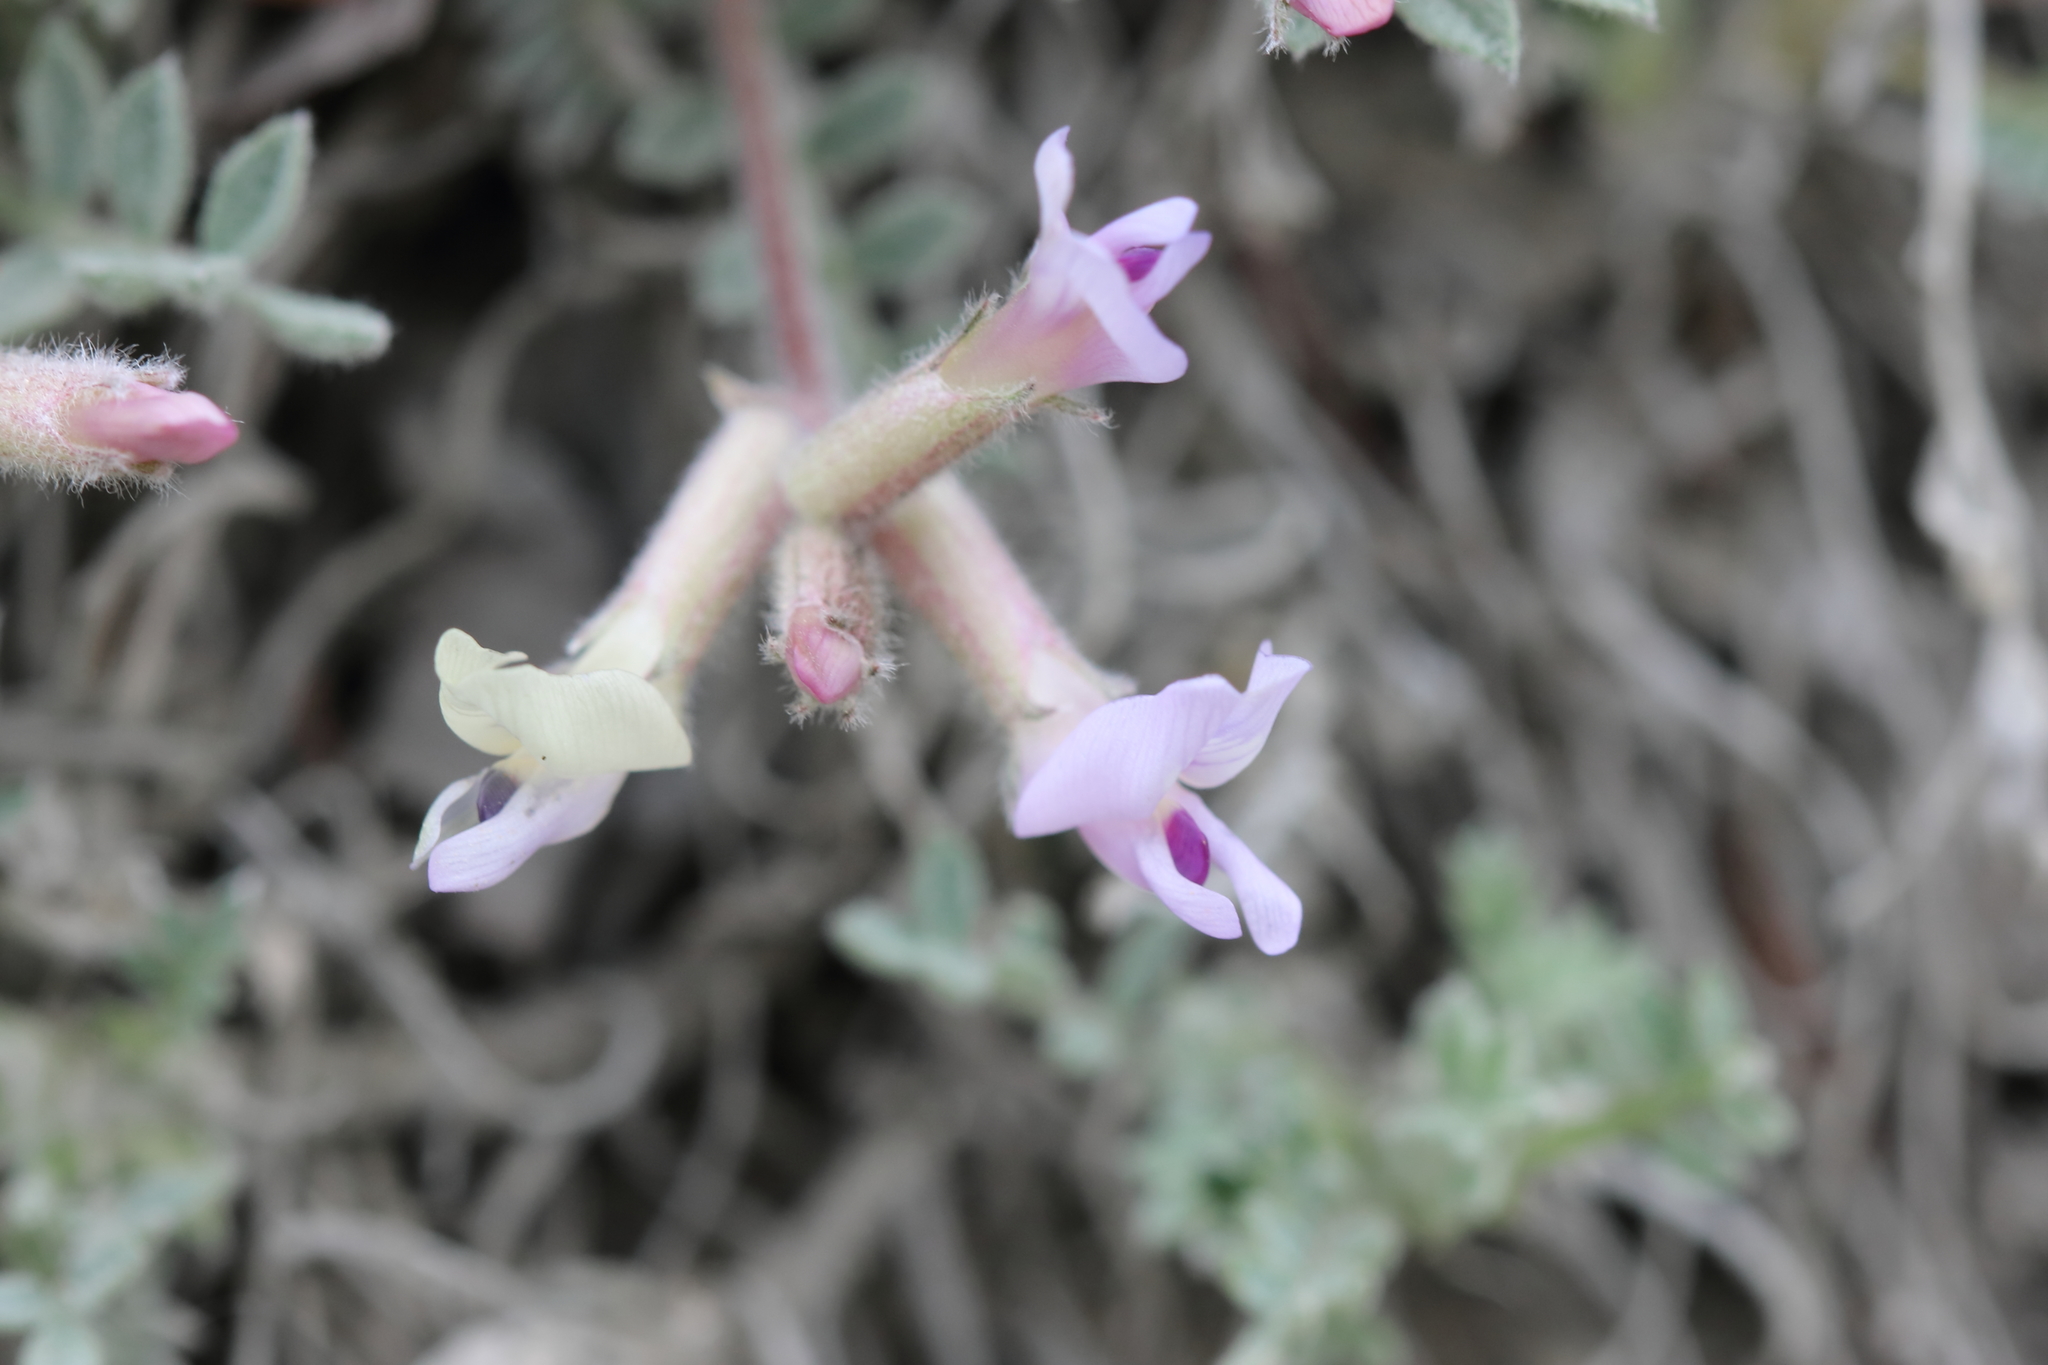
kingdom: Plantae
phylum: Tracheophyta
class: Magnoliopsida
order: Fabales
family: Fabaceae
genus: Astragalus
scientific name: Astragalus purshii
